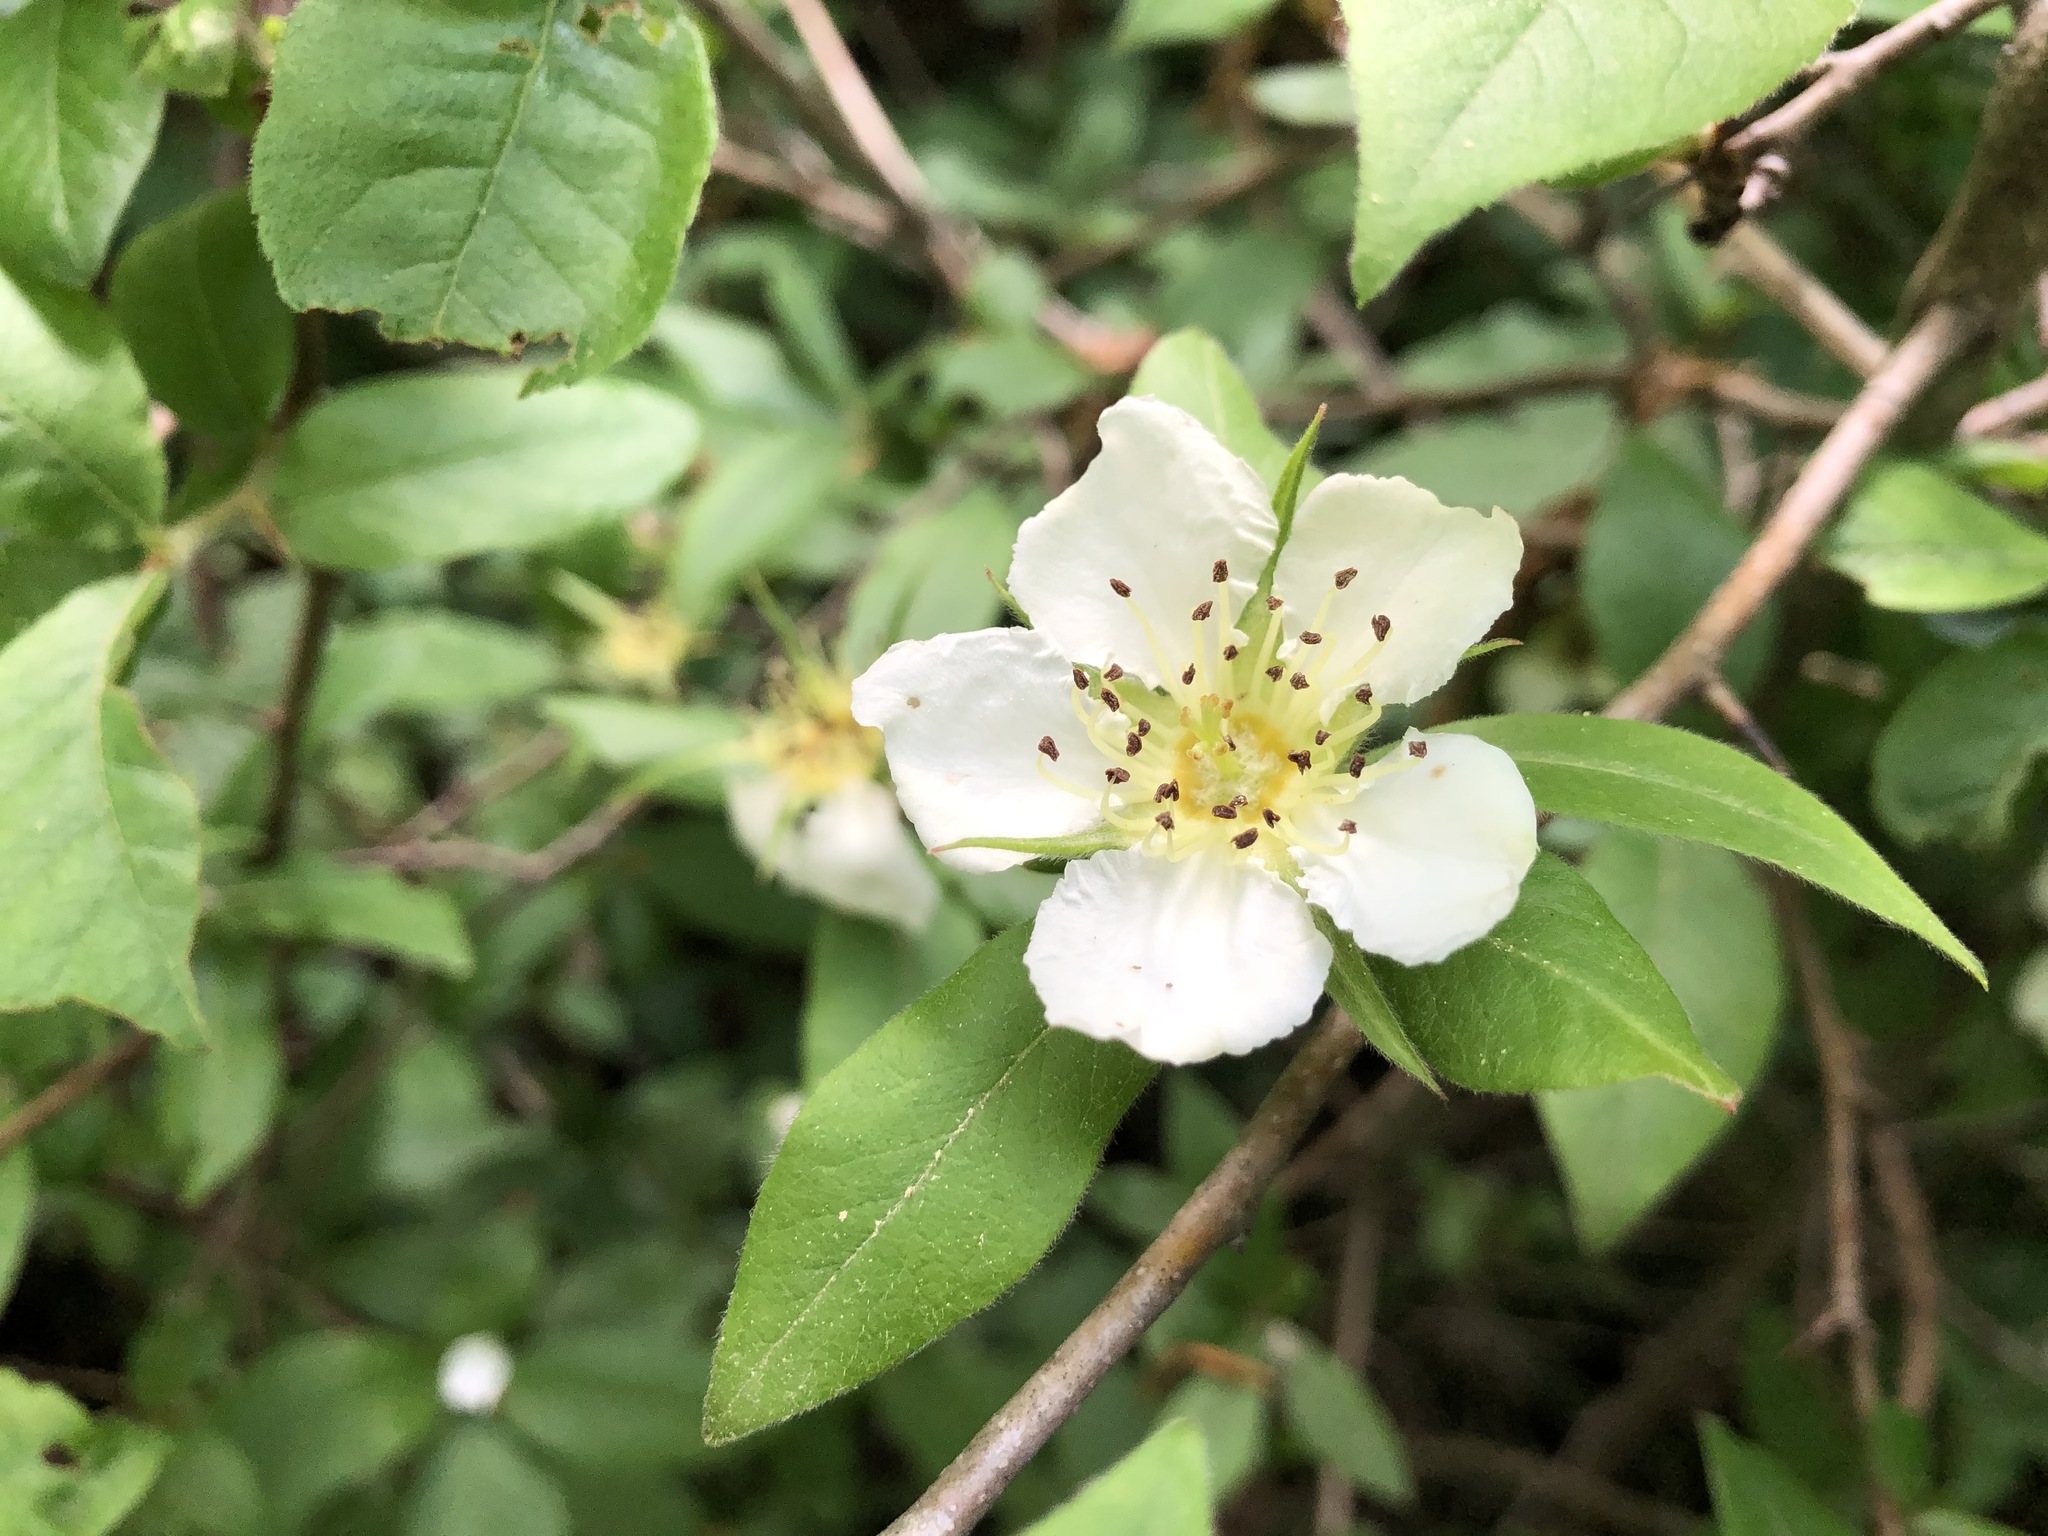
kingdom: Plantae
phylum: Tracheophyta
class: Magnoliopsida
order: Rosales
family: Rosaceae
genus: Mespilus
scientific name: Mespilus germanica
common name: Medlar
